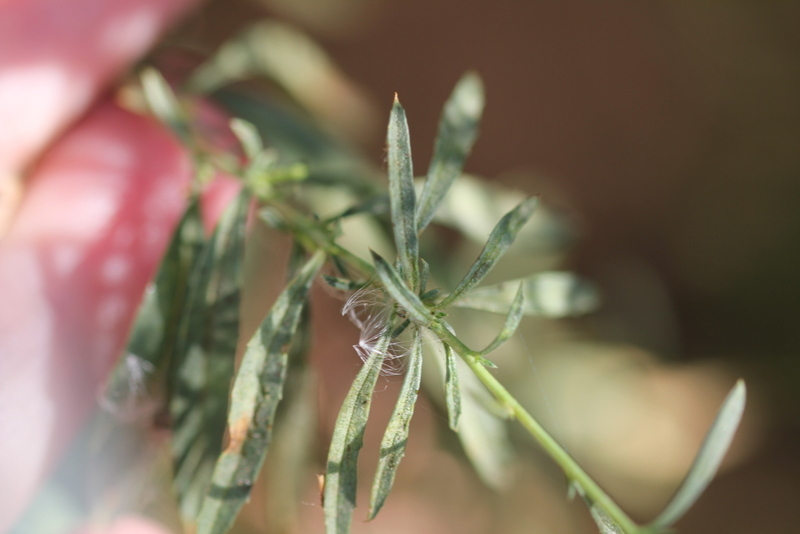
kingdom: Plantae
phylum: Tracheophyta
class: Magnoliopsida
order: Myrtales
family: Onagraceae
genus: Epilobium
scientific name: Epilobium brachycarpum
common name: Annual willowherb
